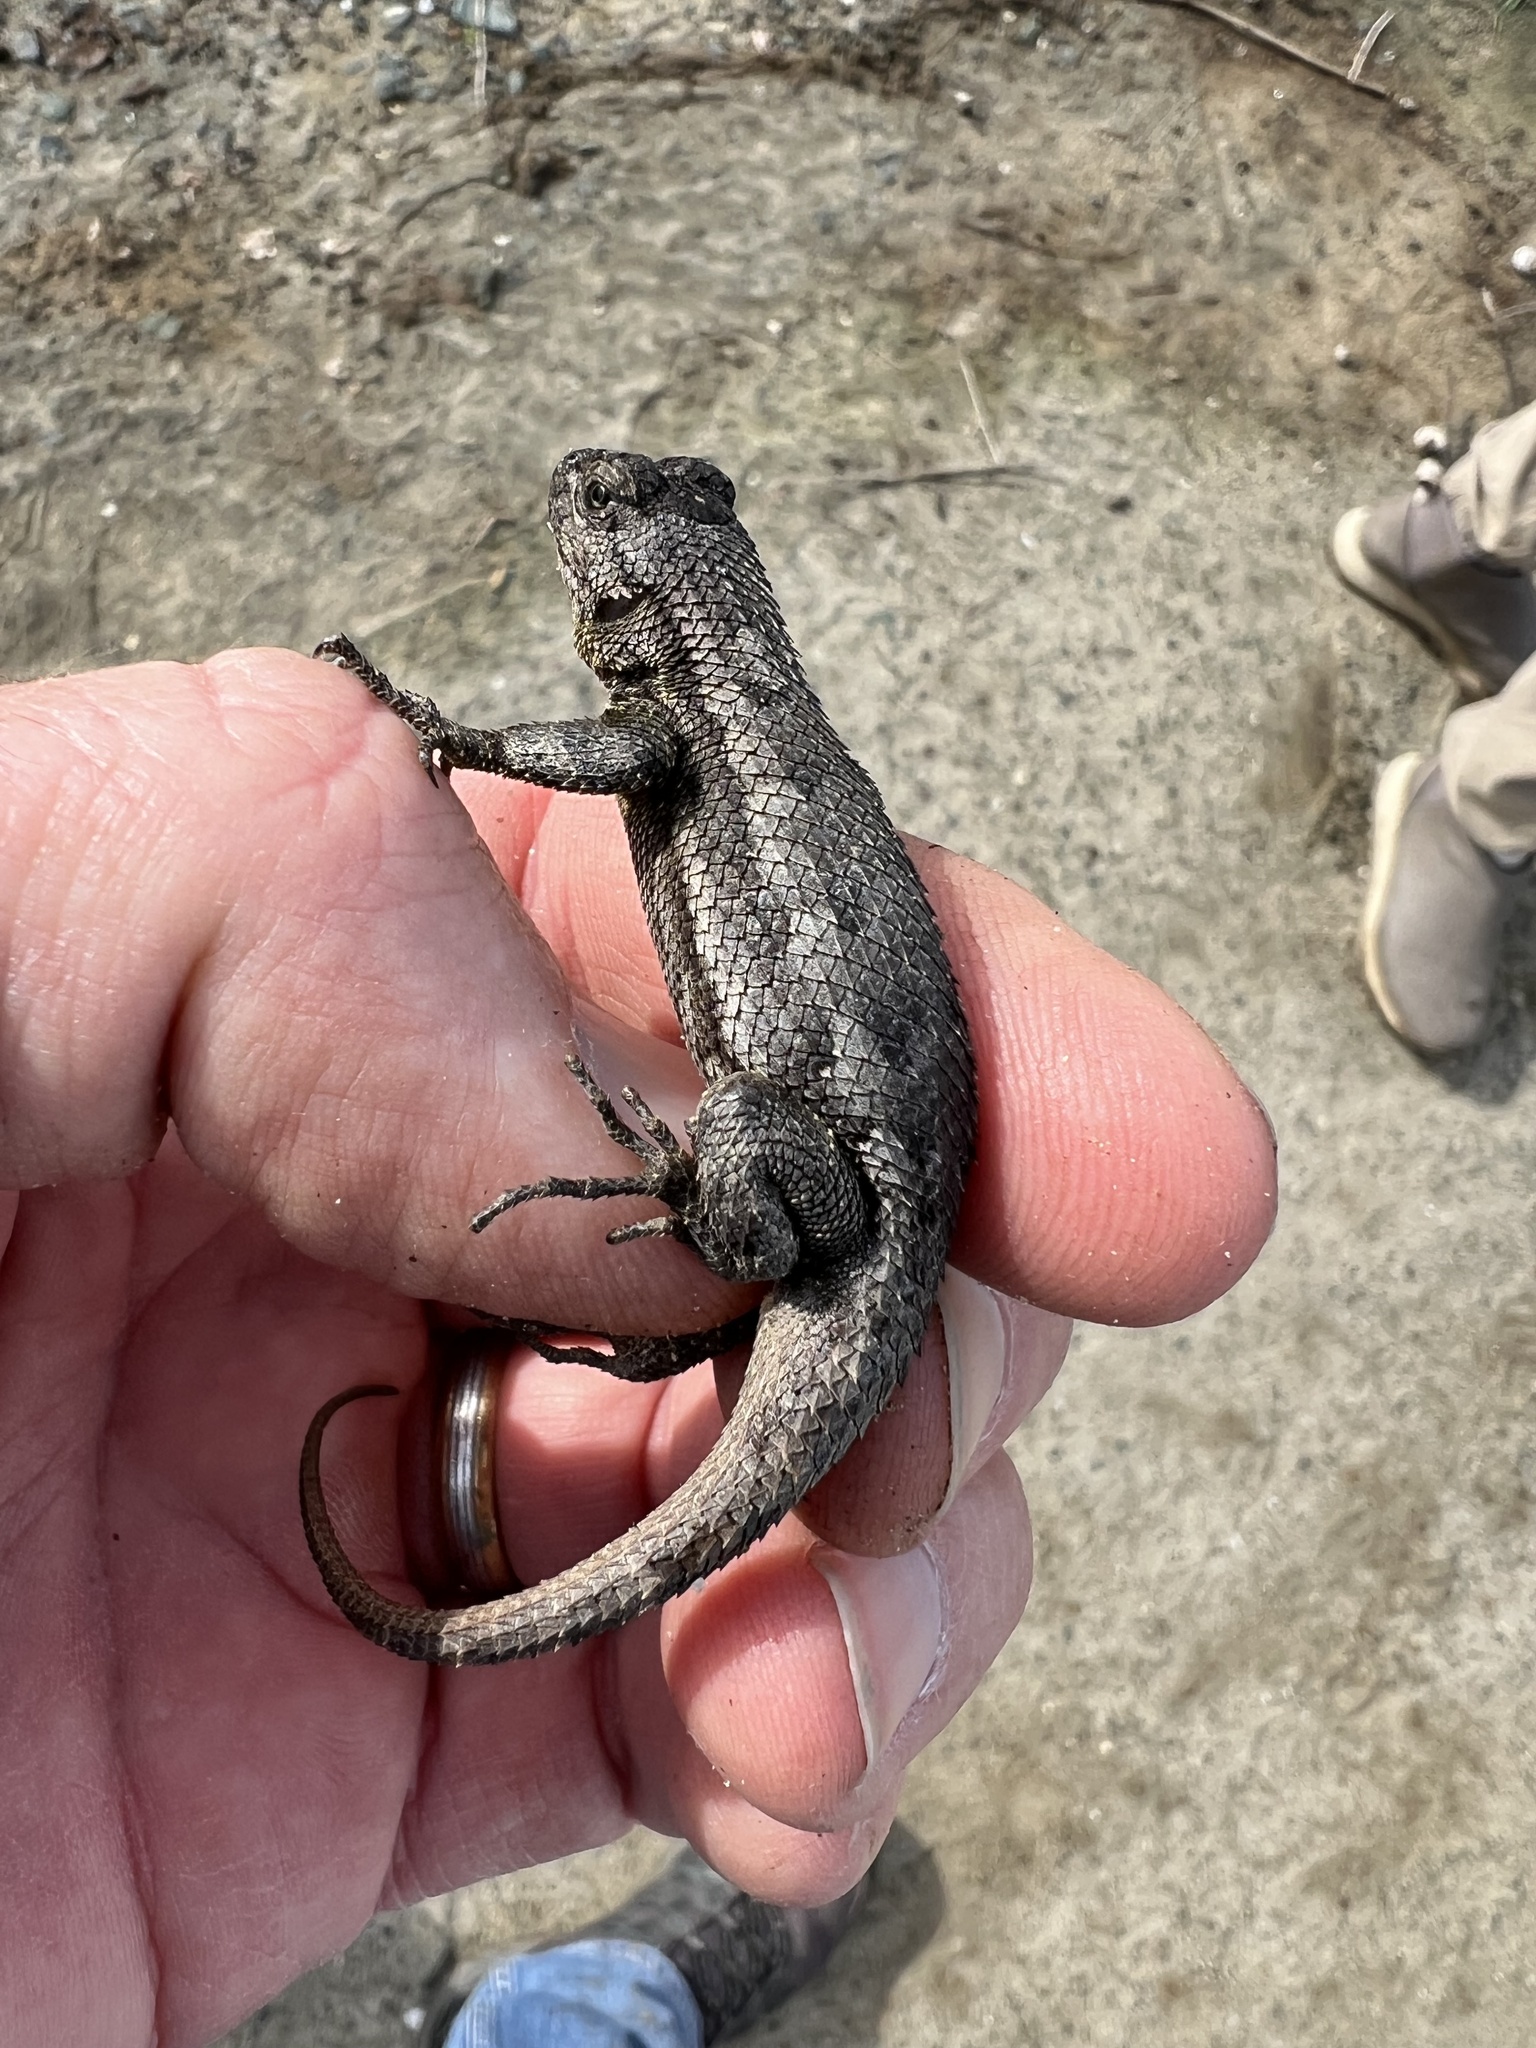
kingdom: Animalia
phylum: Chordata
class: Squamata
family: Phrynosomatidae
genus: Sceloporus
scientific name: Sceloporus occidentalis
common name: Western fence lizard
